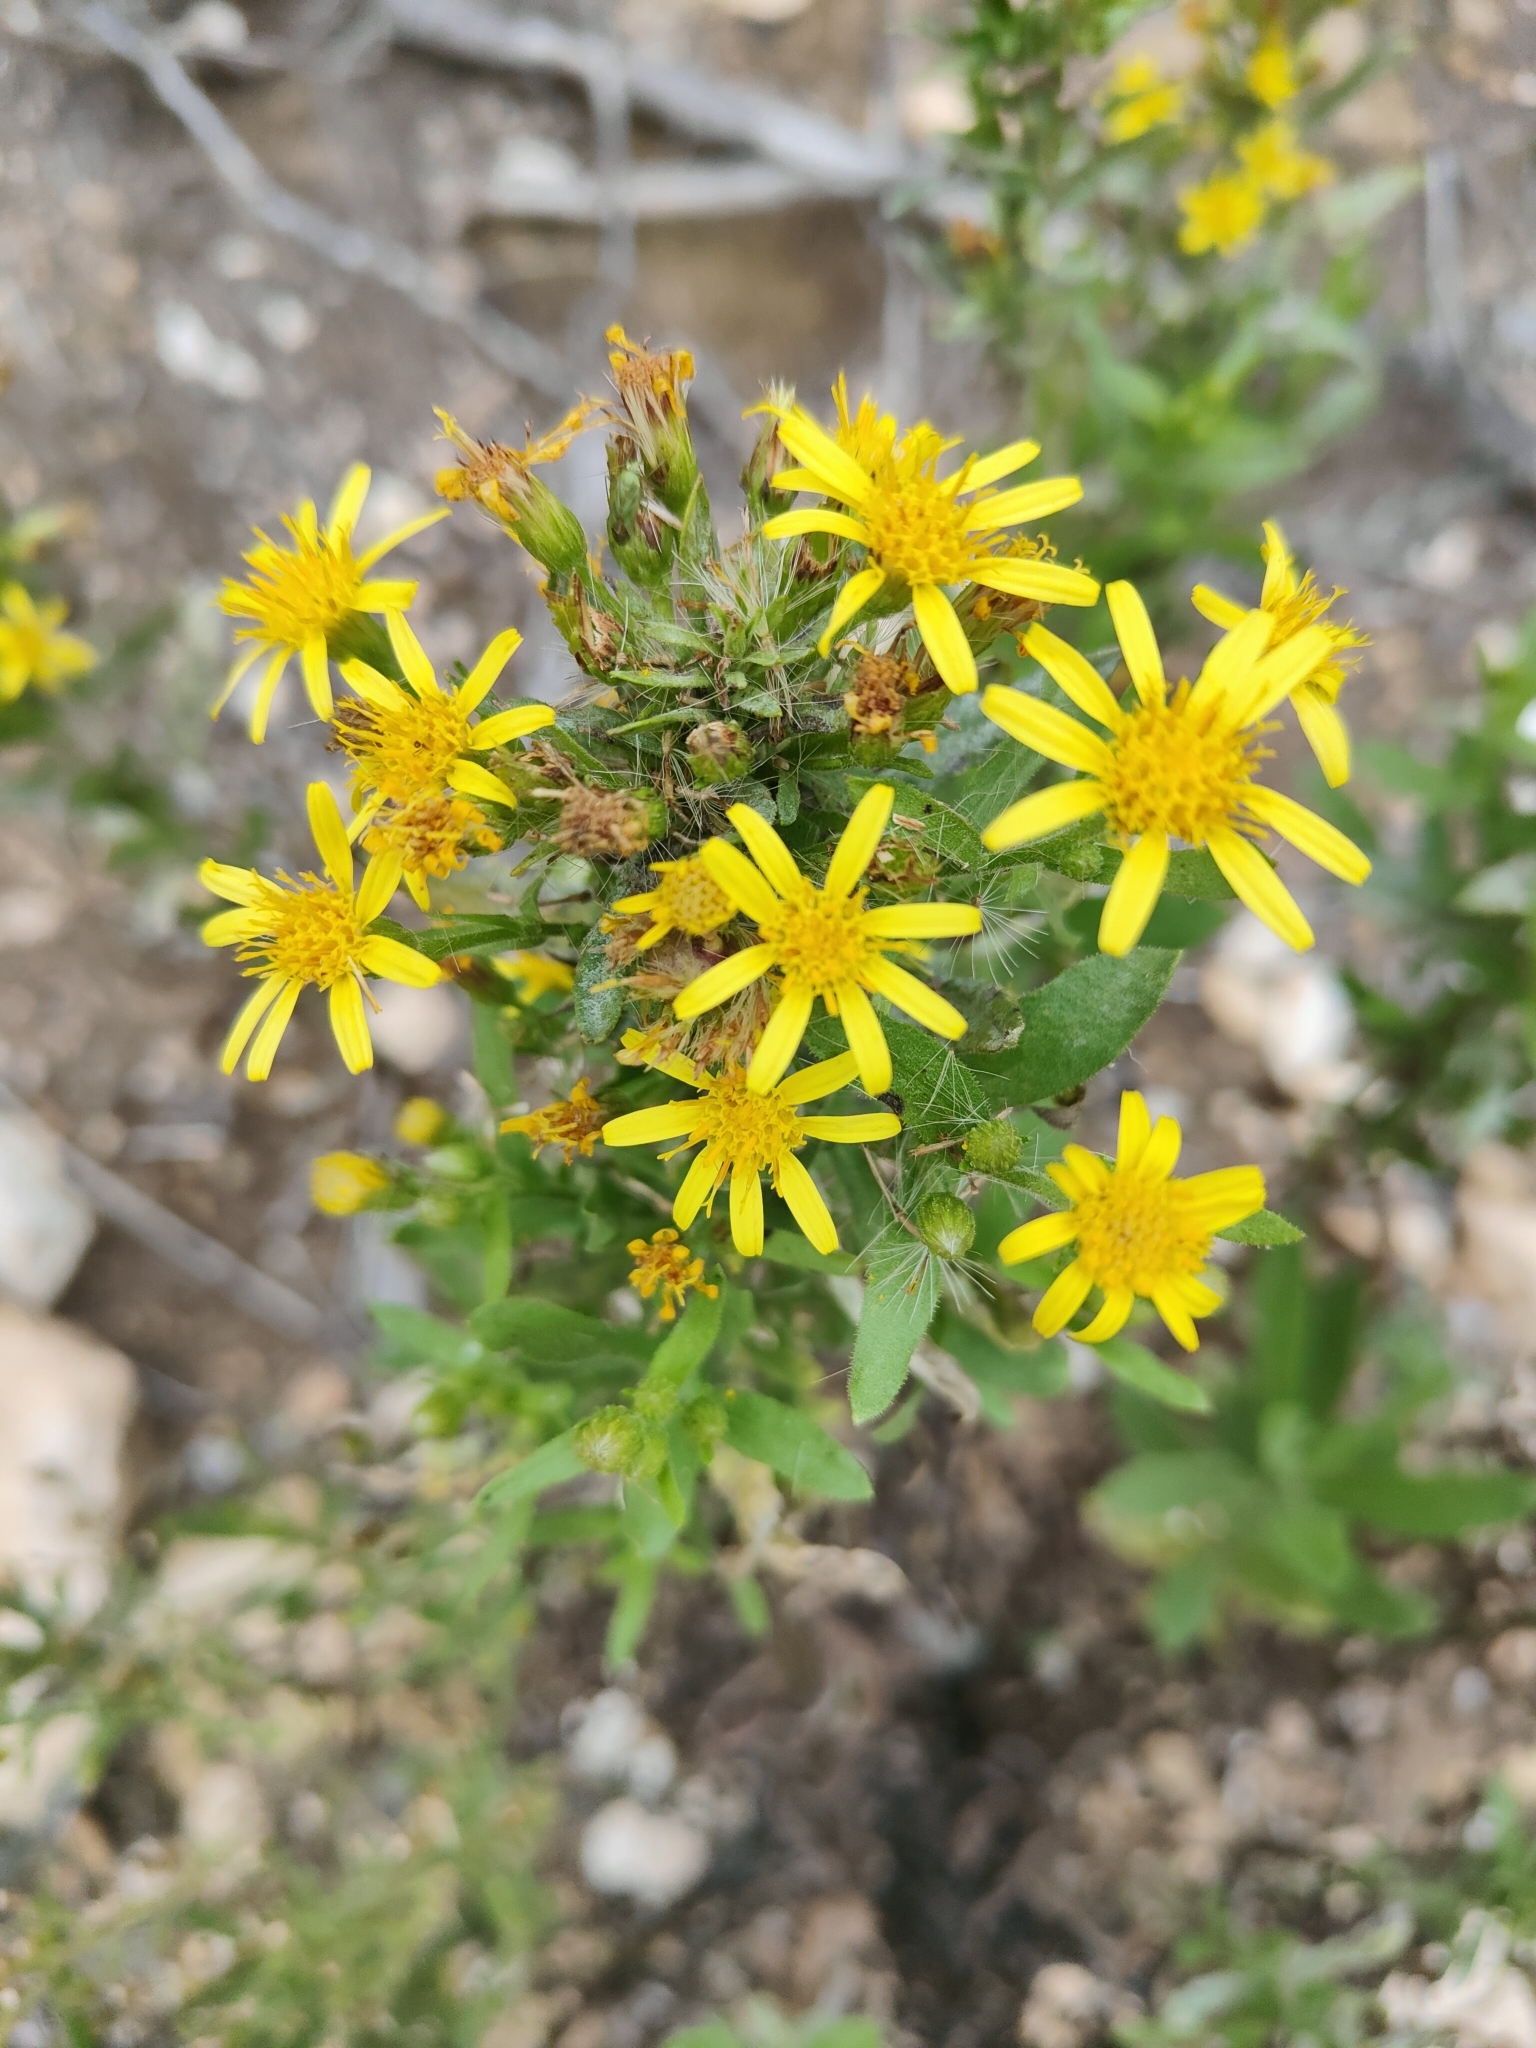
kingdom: Plantae
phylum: Tracheophyta
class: Magnoliopsida
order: Asterales
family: Asteraceae
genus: Dittrichia
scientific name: Dittrichia viscosa
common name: Woody fleabane
